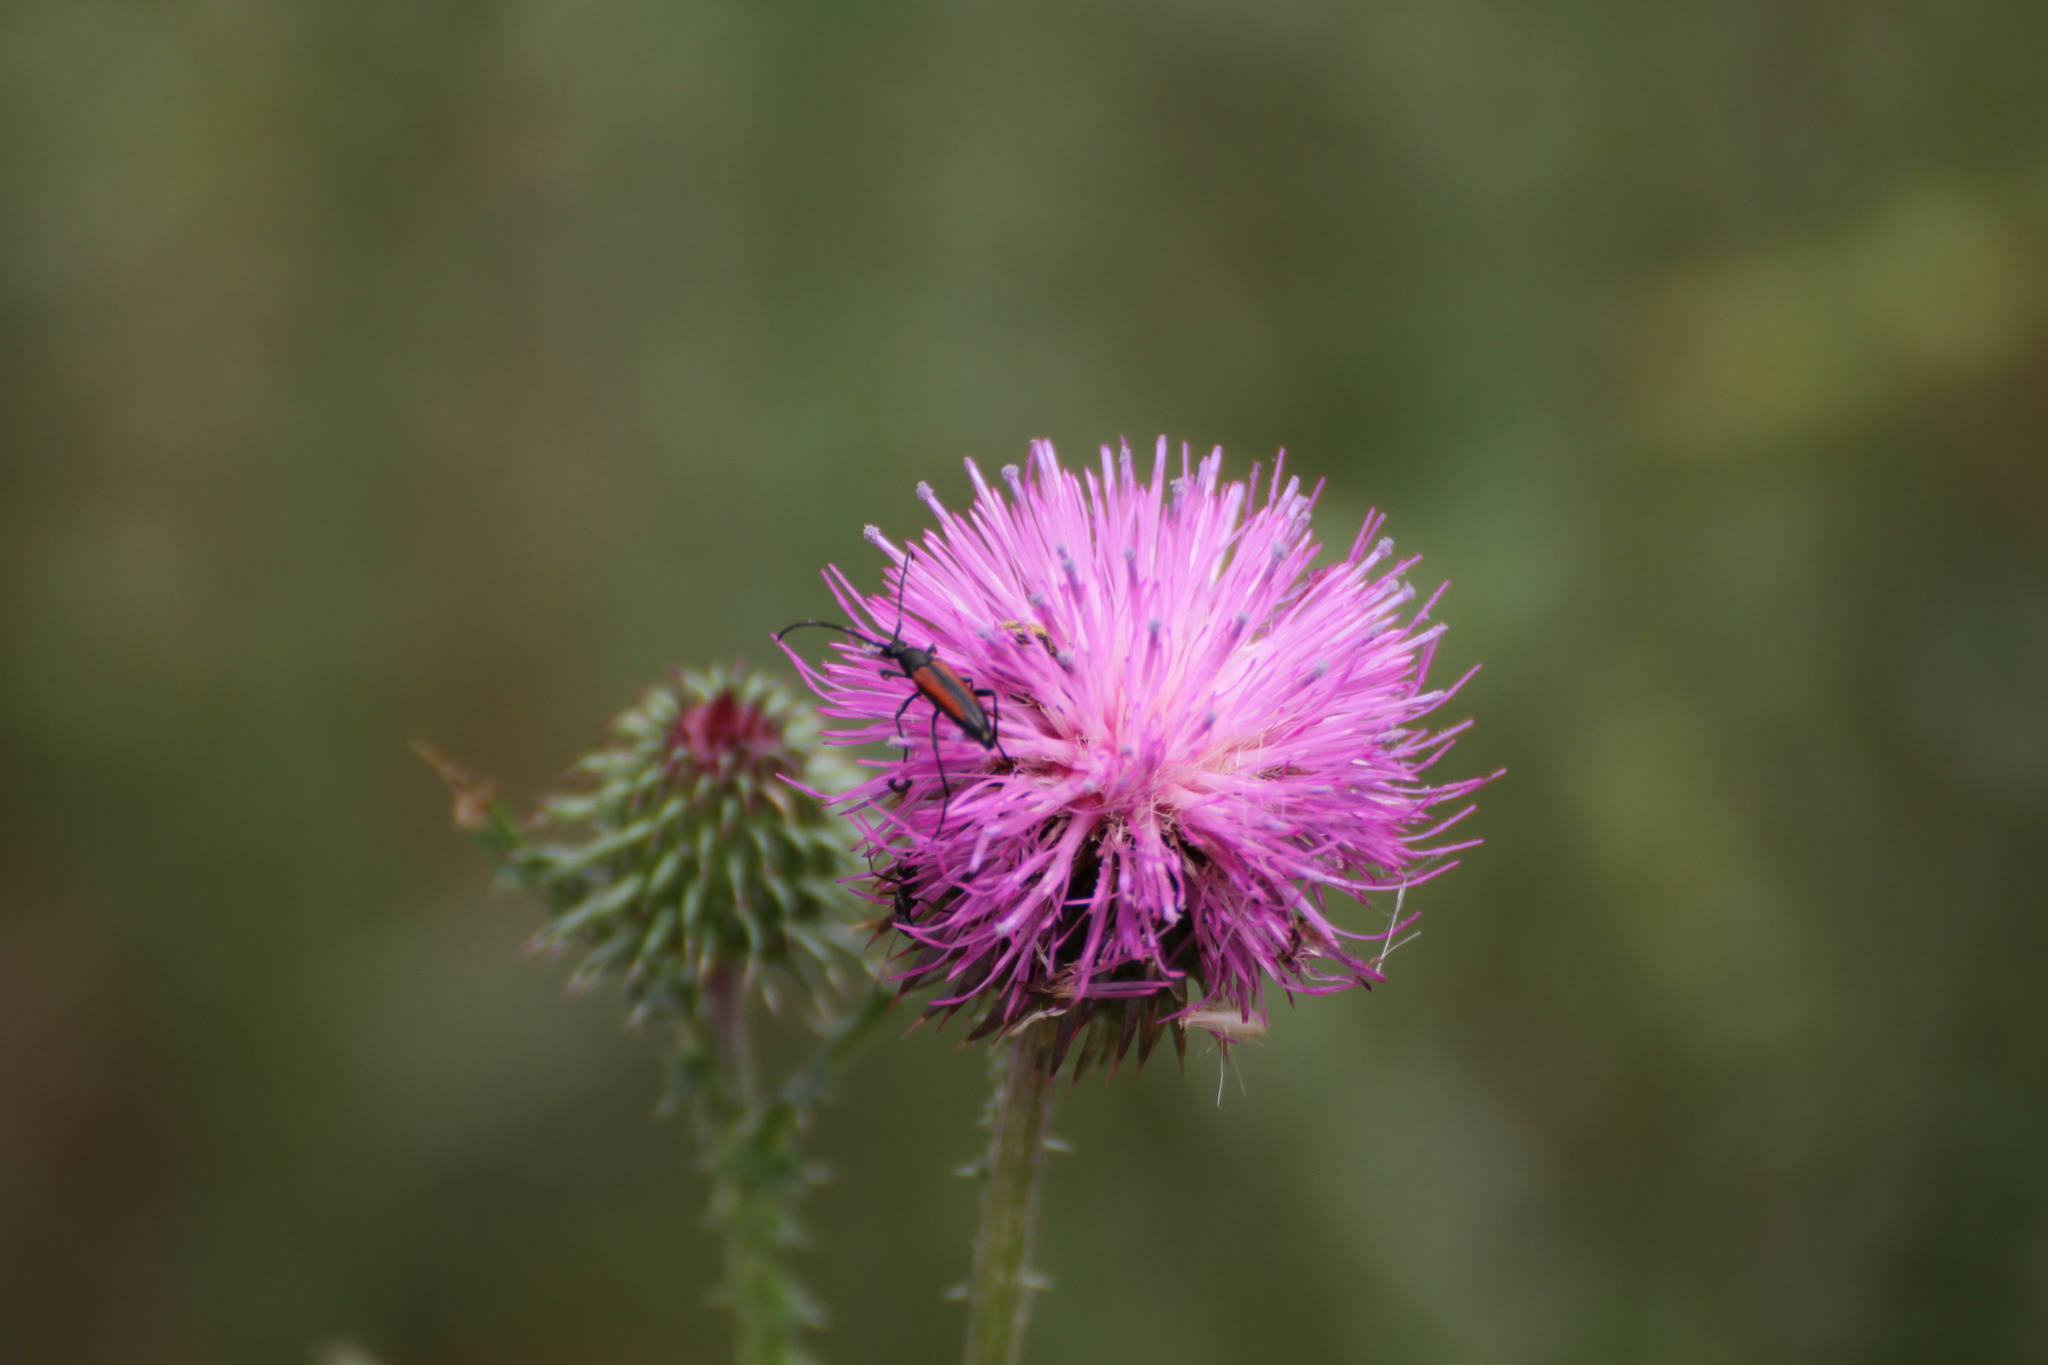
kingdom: Animalia
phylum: Arthropoda
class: Insecta
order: Coleoptera
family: Cerambycidae
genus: Stenurella
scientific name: Stenurella melanura
